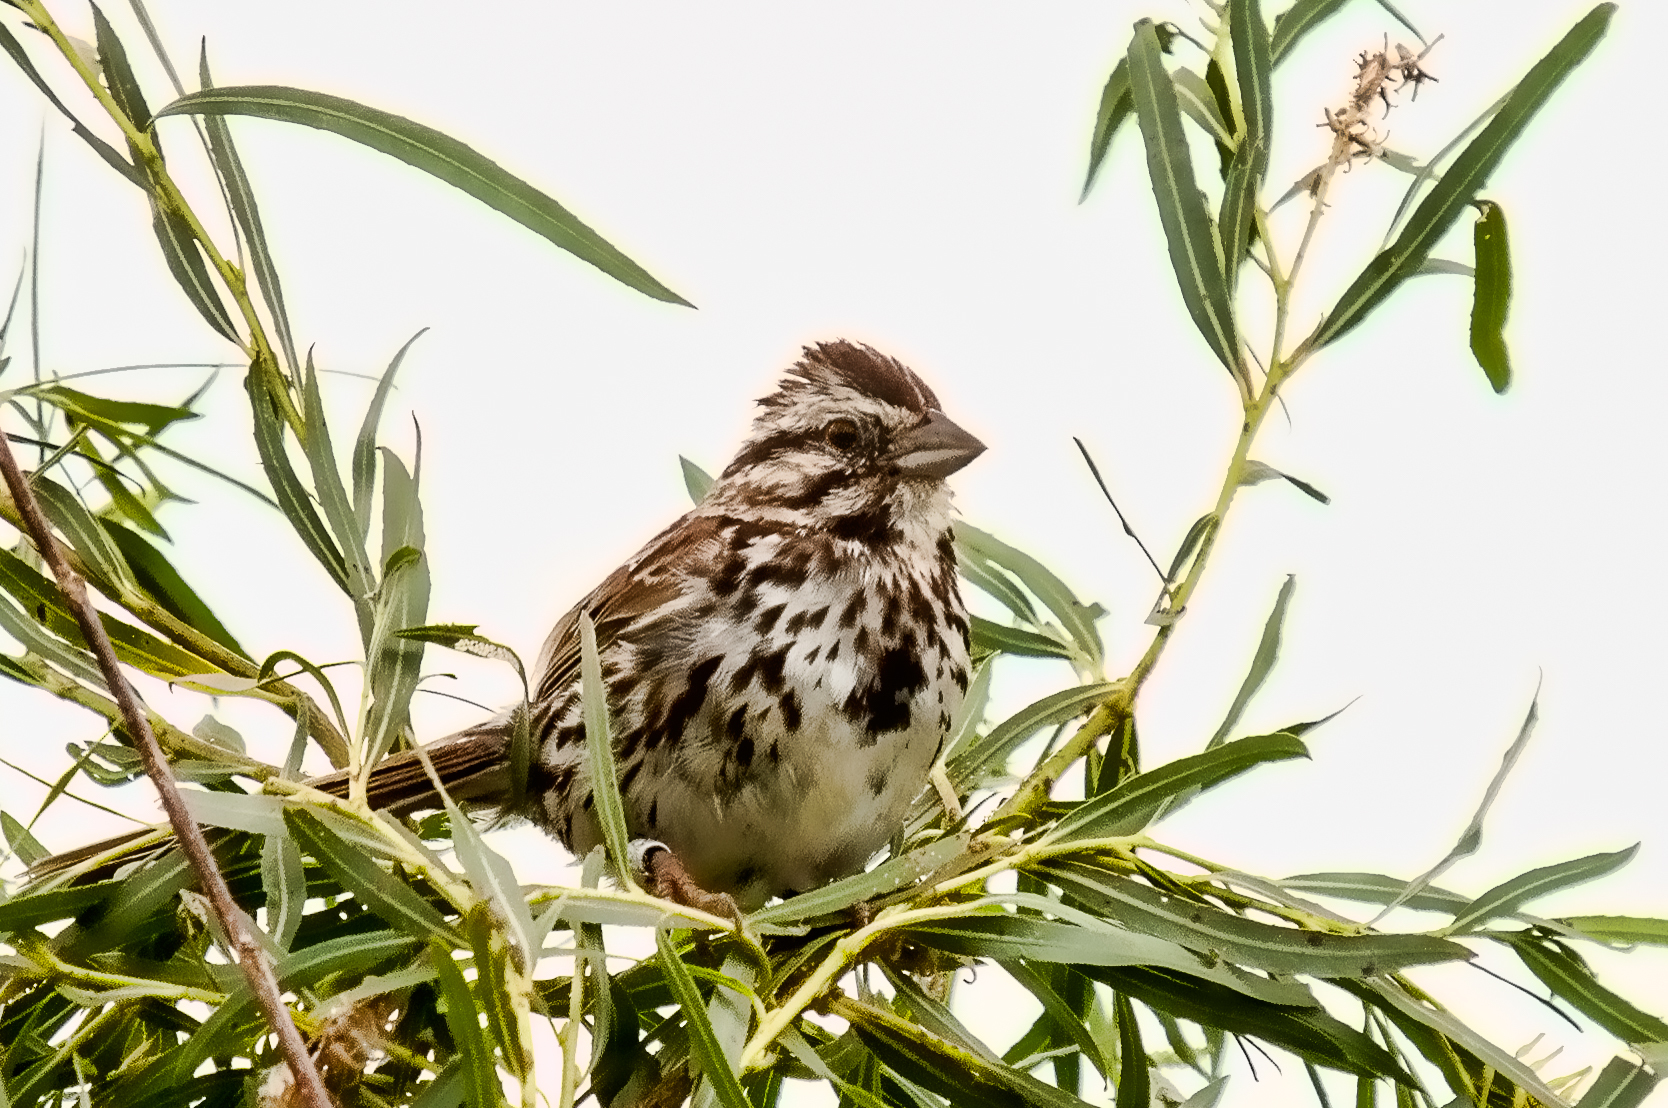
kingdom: Animalia
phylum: Chordata
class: Aves
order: Passeriformes
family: Passerellidae
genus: Melospiza
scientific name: Melospiza melodia
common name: Song sparrow
